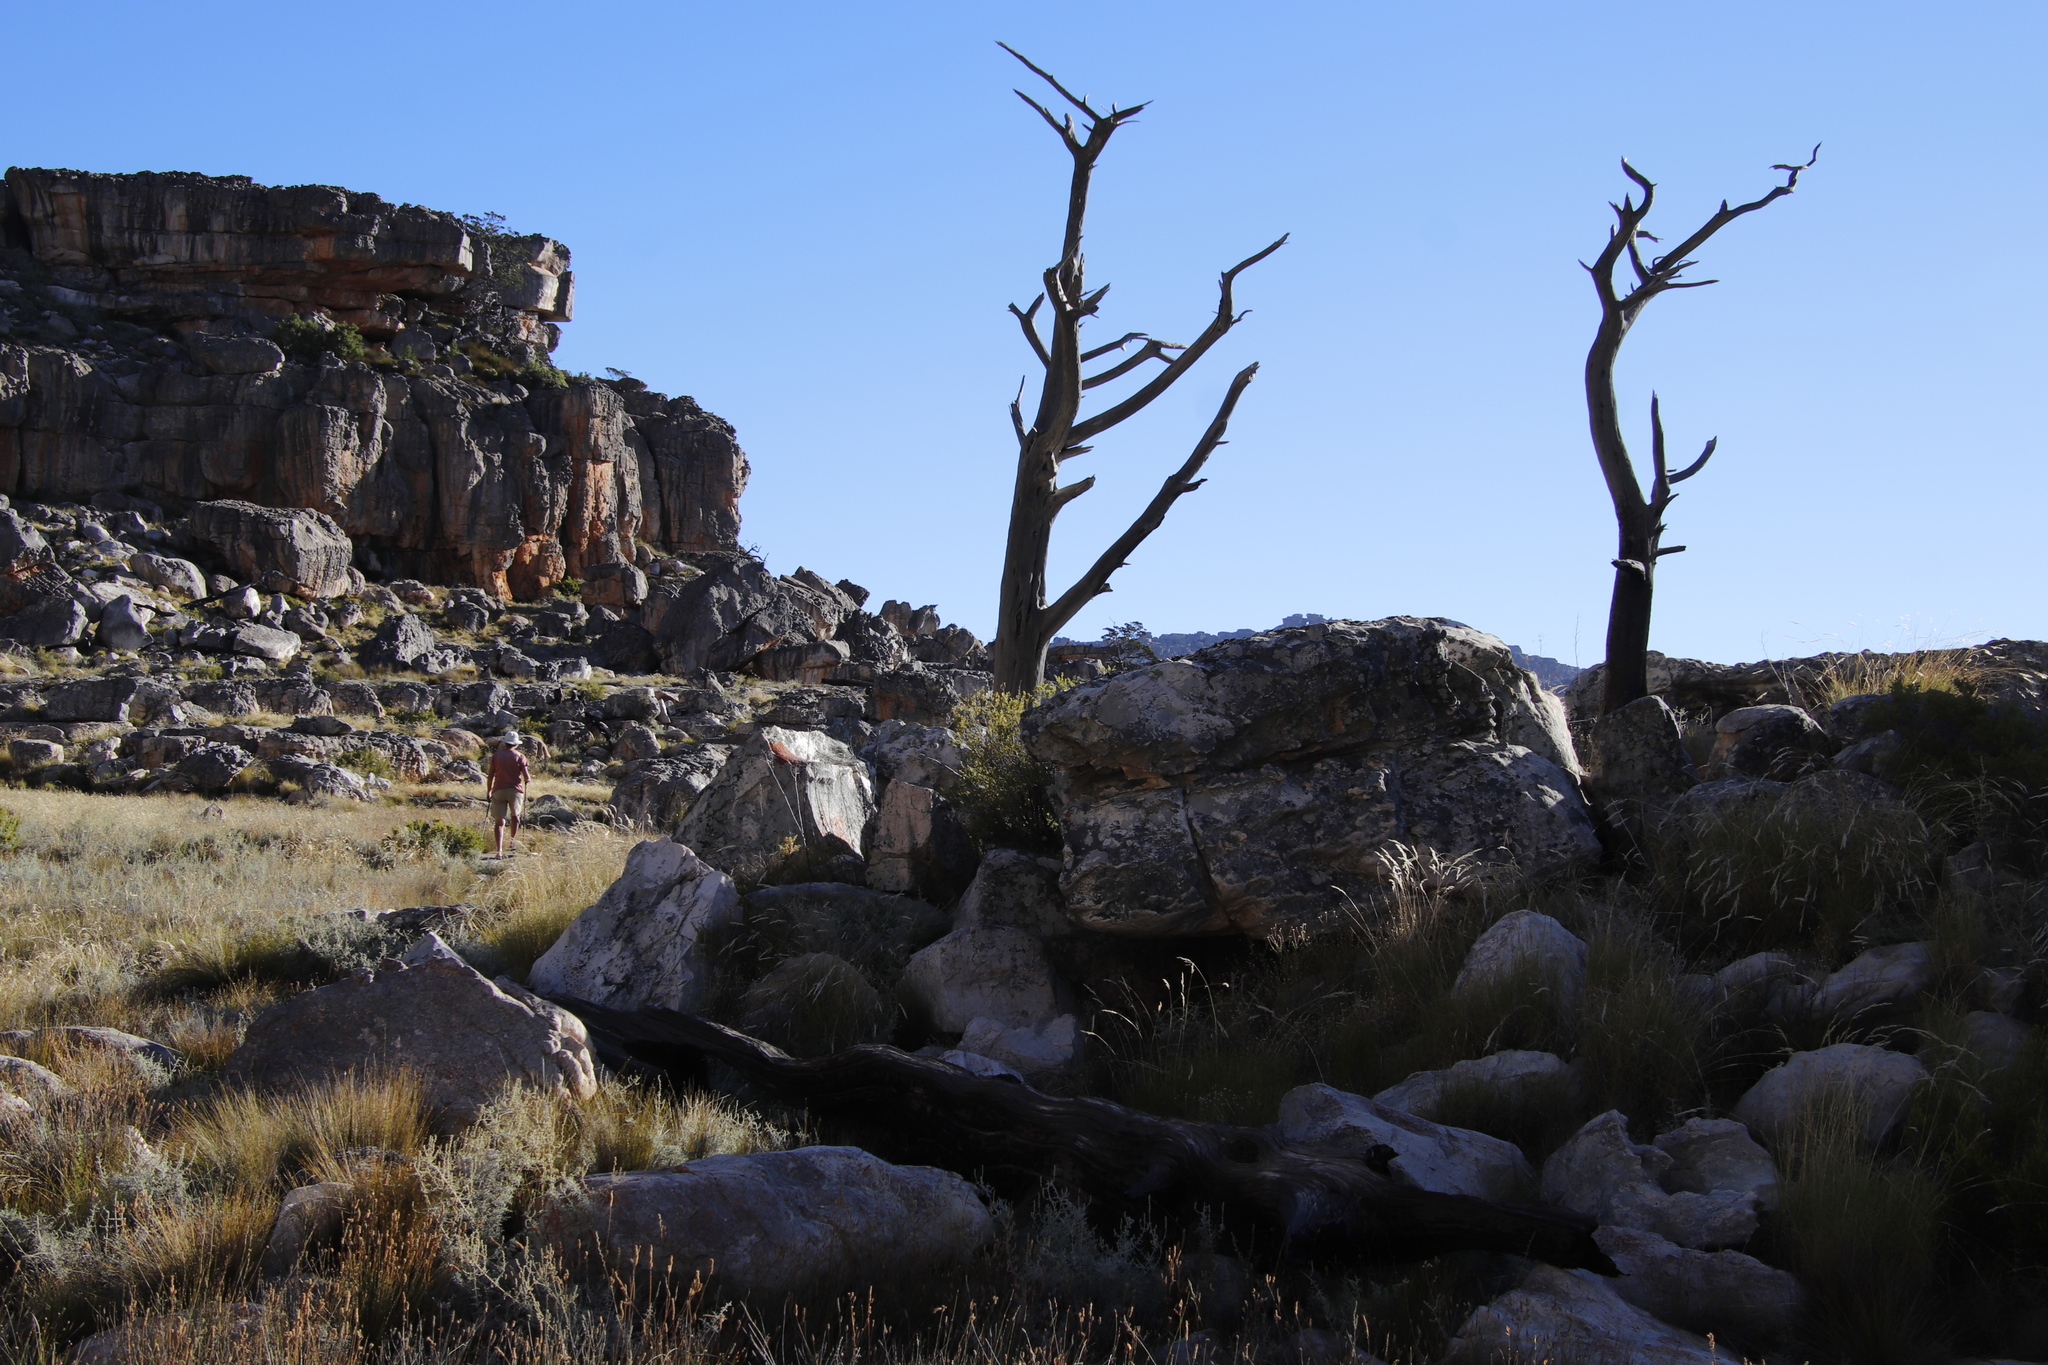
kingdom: Plantae
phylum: Tracheophyta
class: Pinopsida
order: Pinales
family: Cupressaceae
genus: Widdringtonia
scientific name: Widdringtonia nodiflora
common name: Cape cypress
